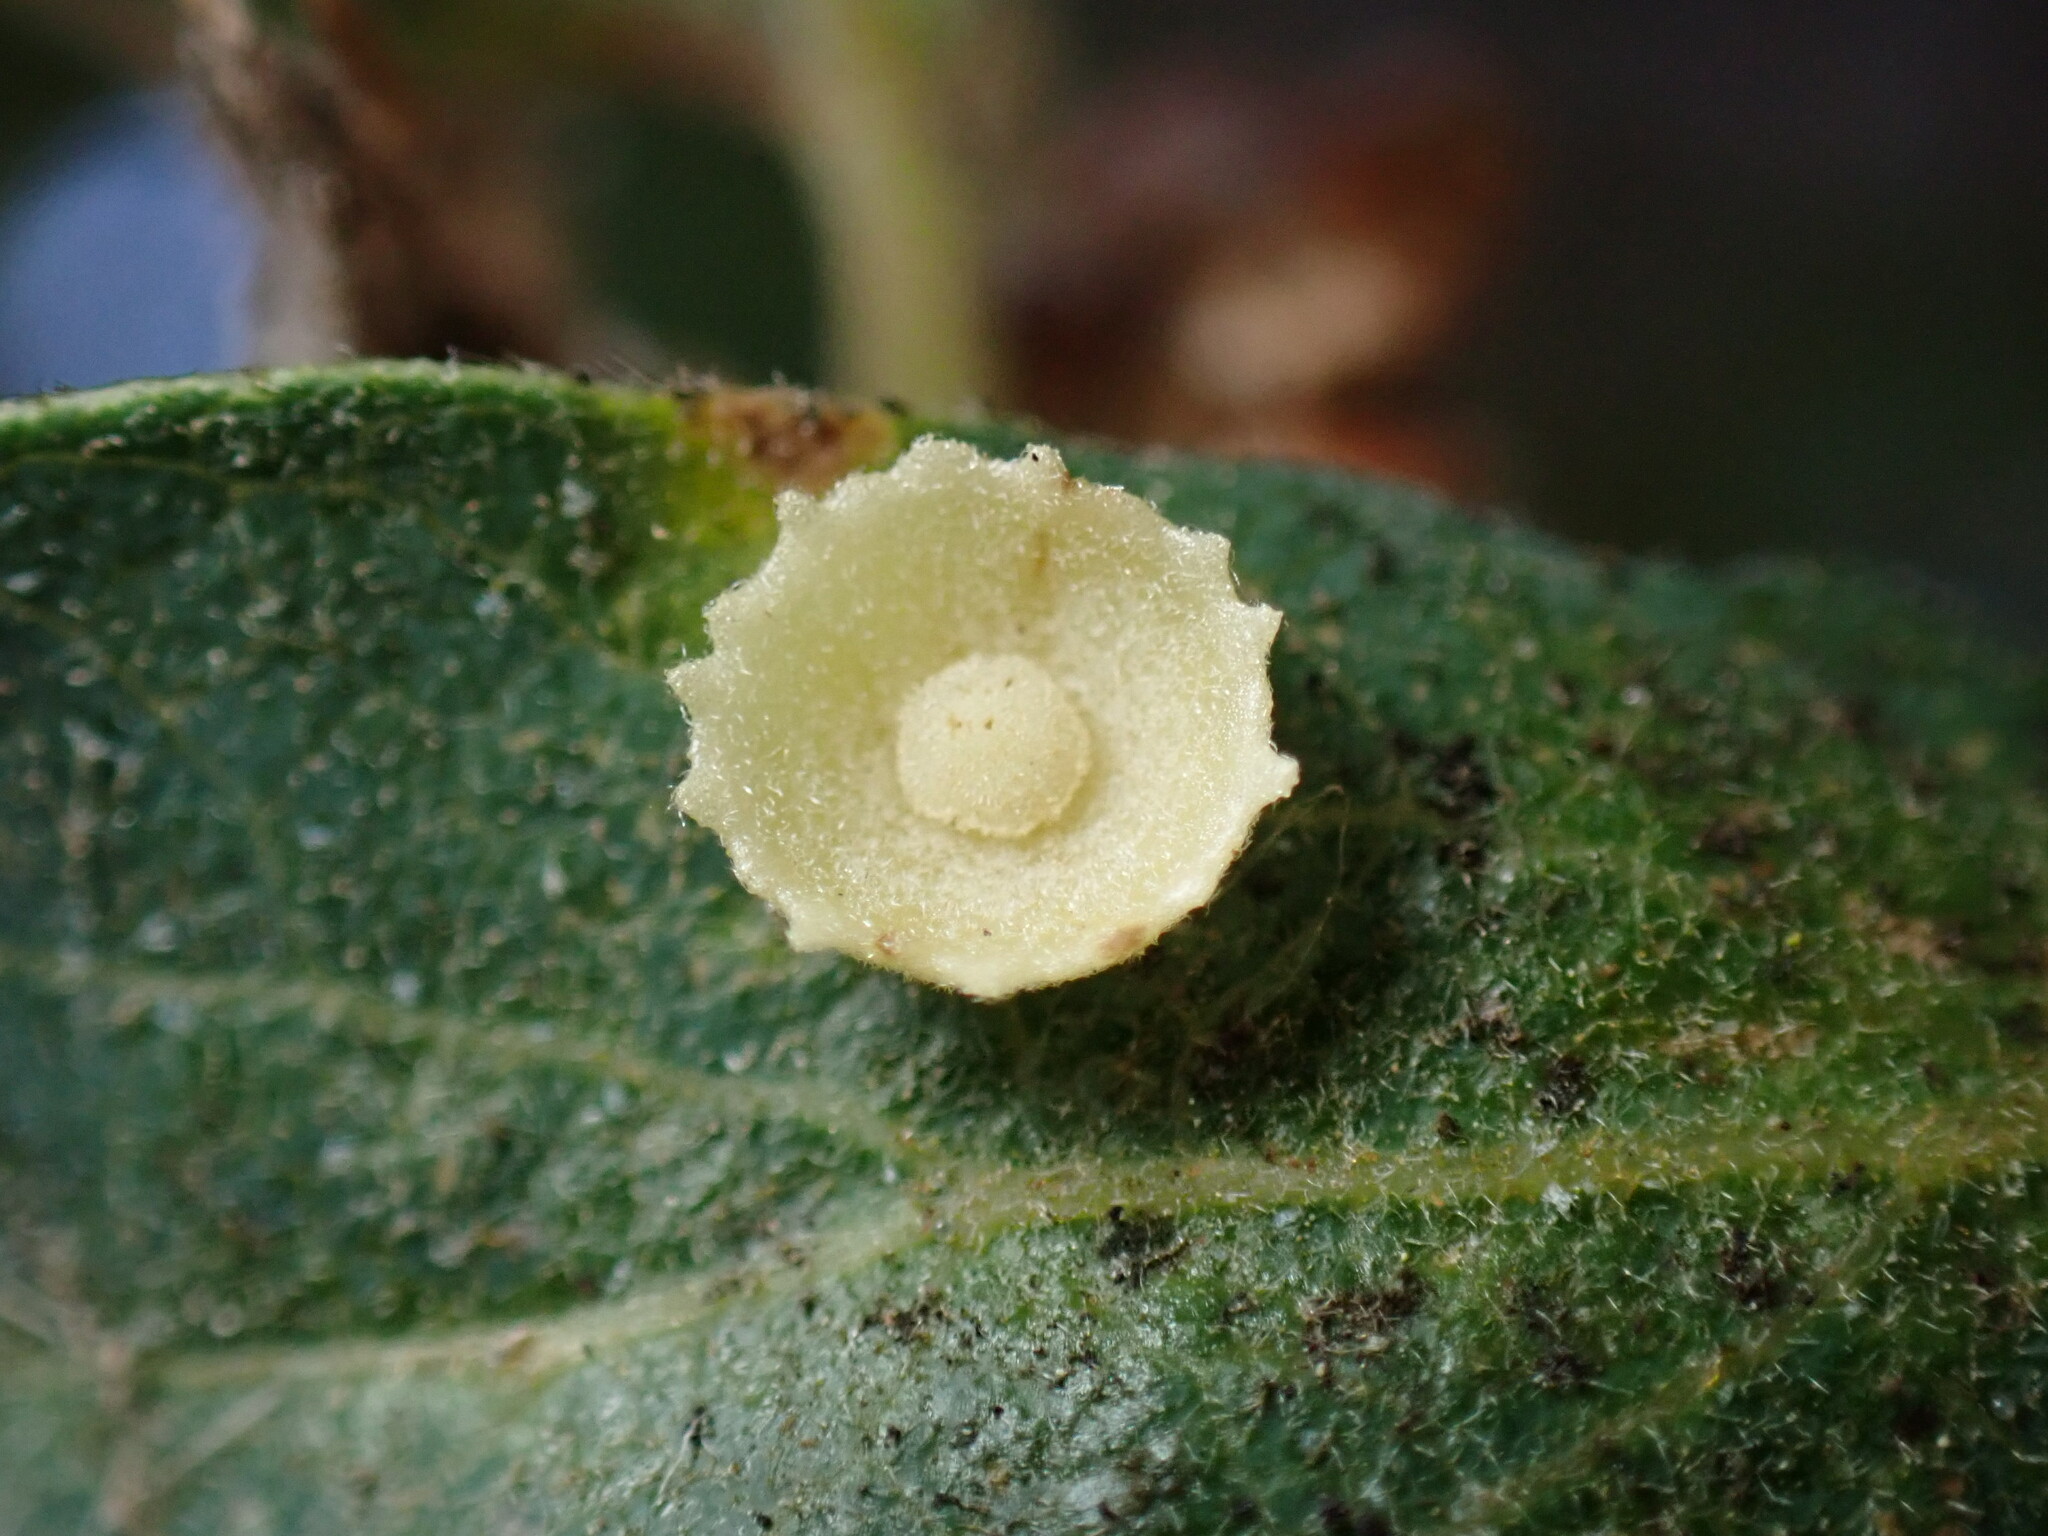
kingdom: Animalia
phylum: Arthropoda
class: Insecta
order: Hymenoptera
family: Cynipidae
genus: Andricus
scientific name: Andricus
